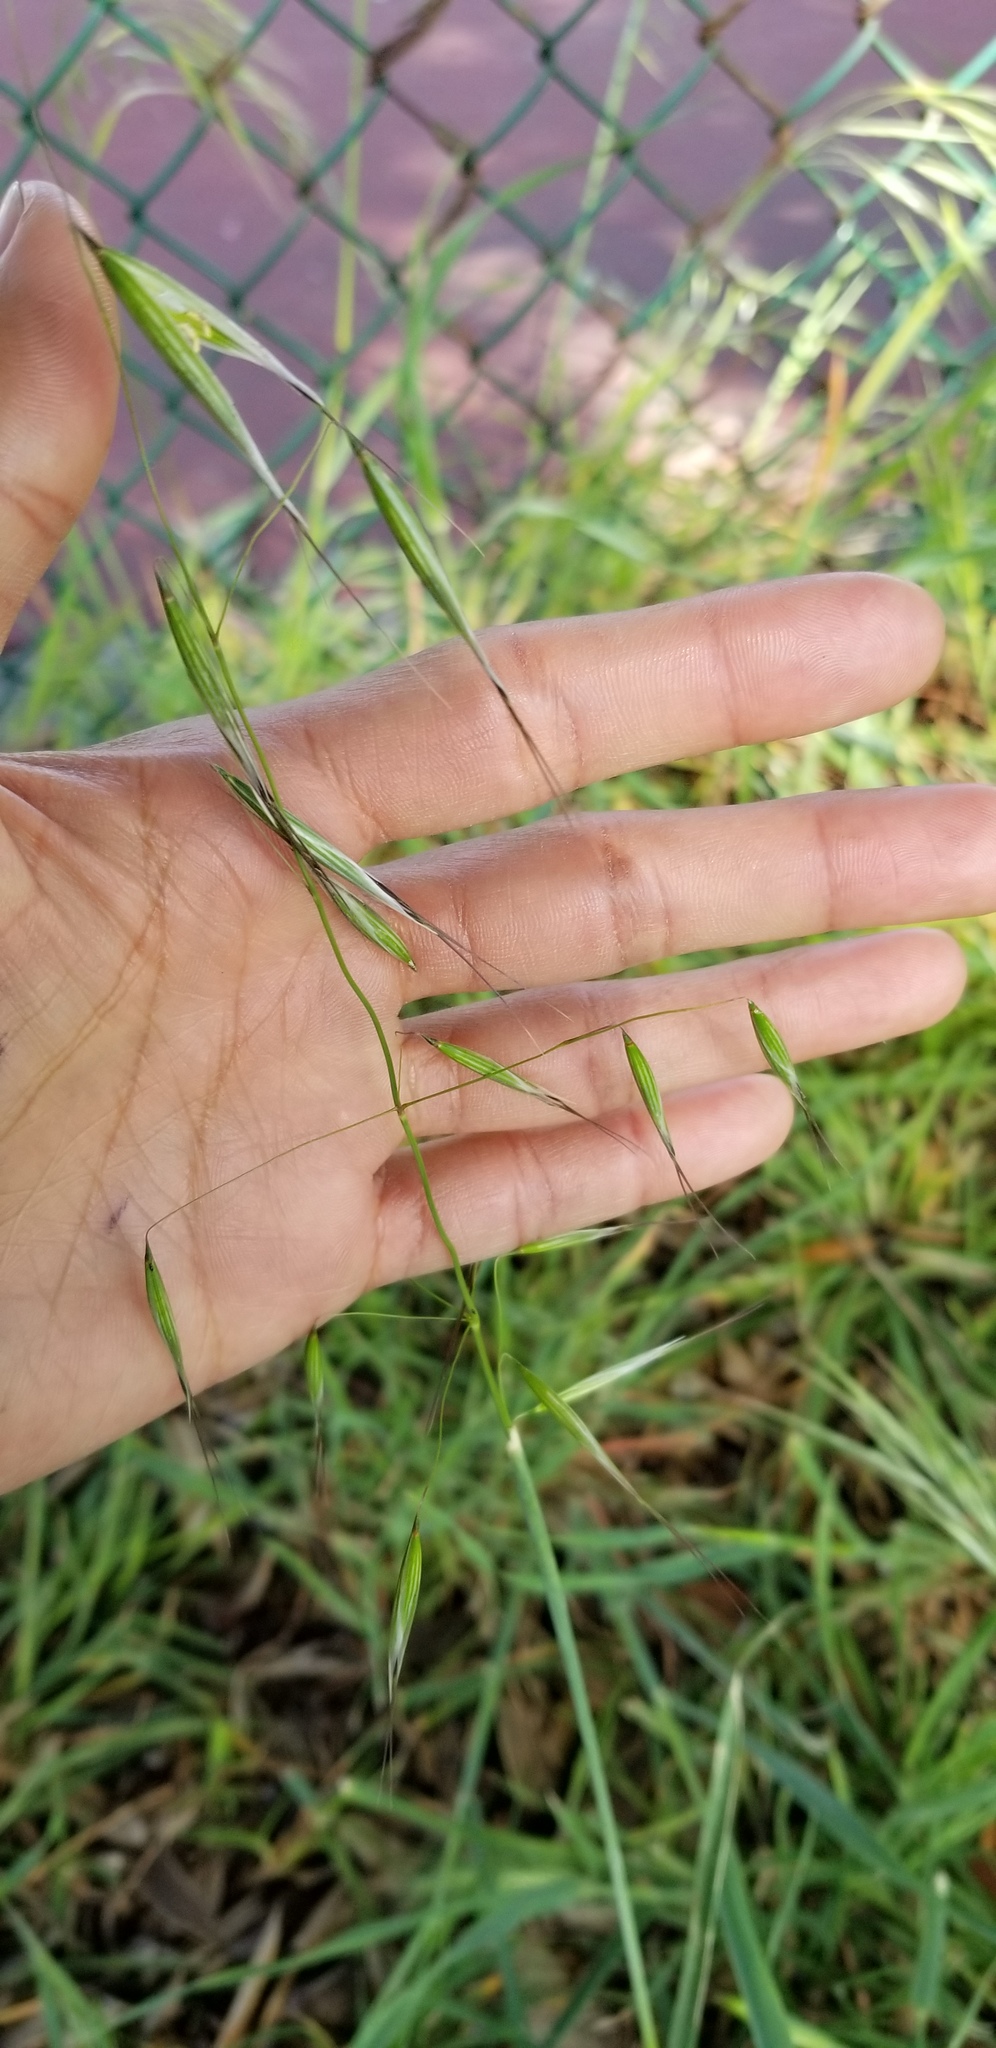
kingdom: Plantae
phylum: Tracheophyta
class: Liliopsida
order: Poales
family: Poaceae
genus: Avena
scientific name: Avena barbata
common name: Slender oat
